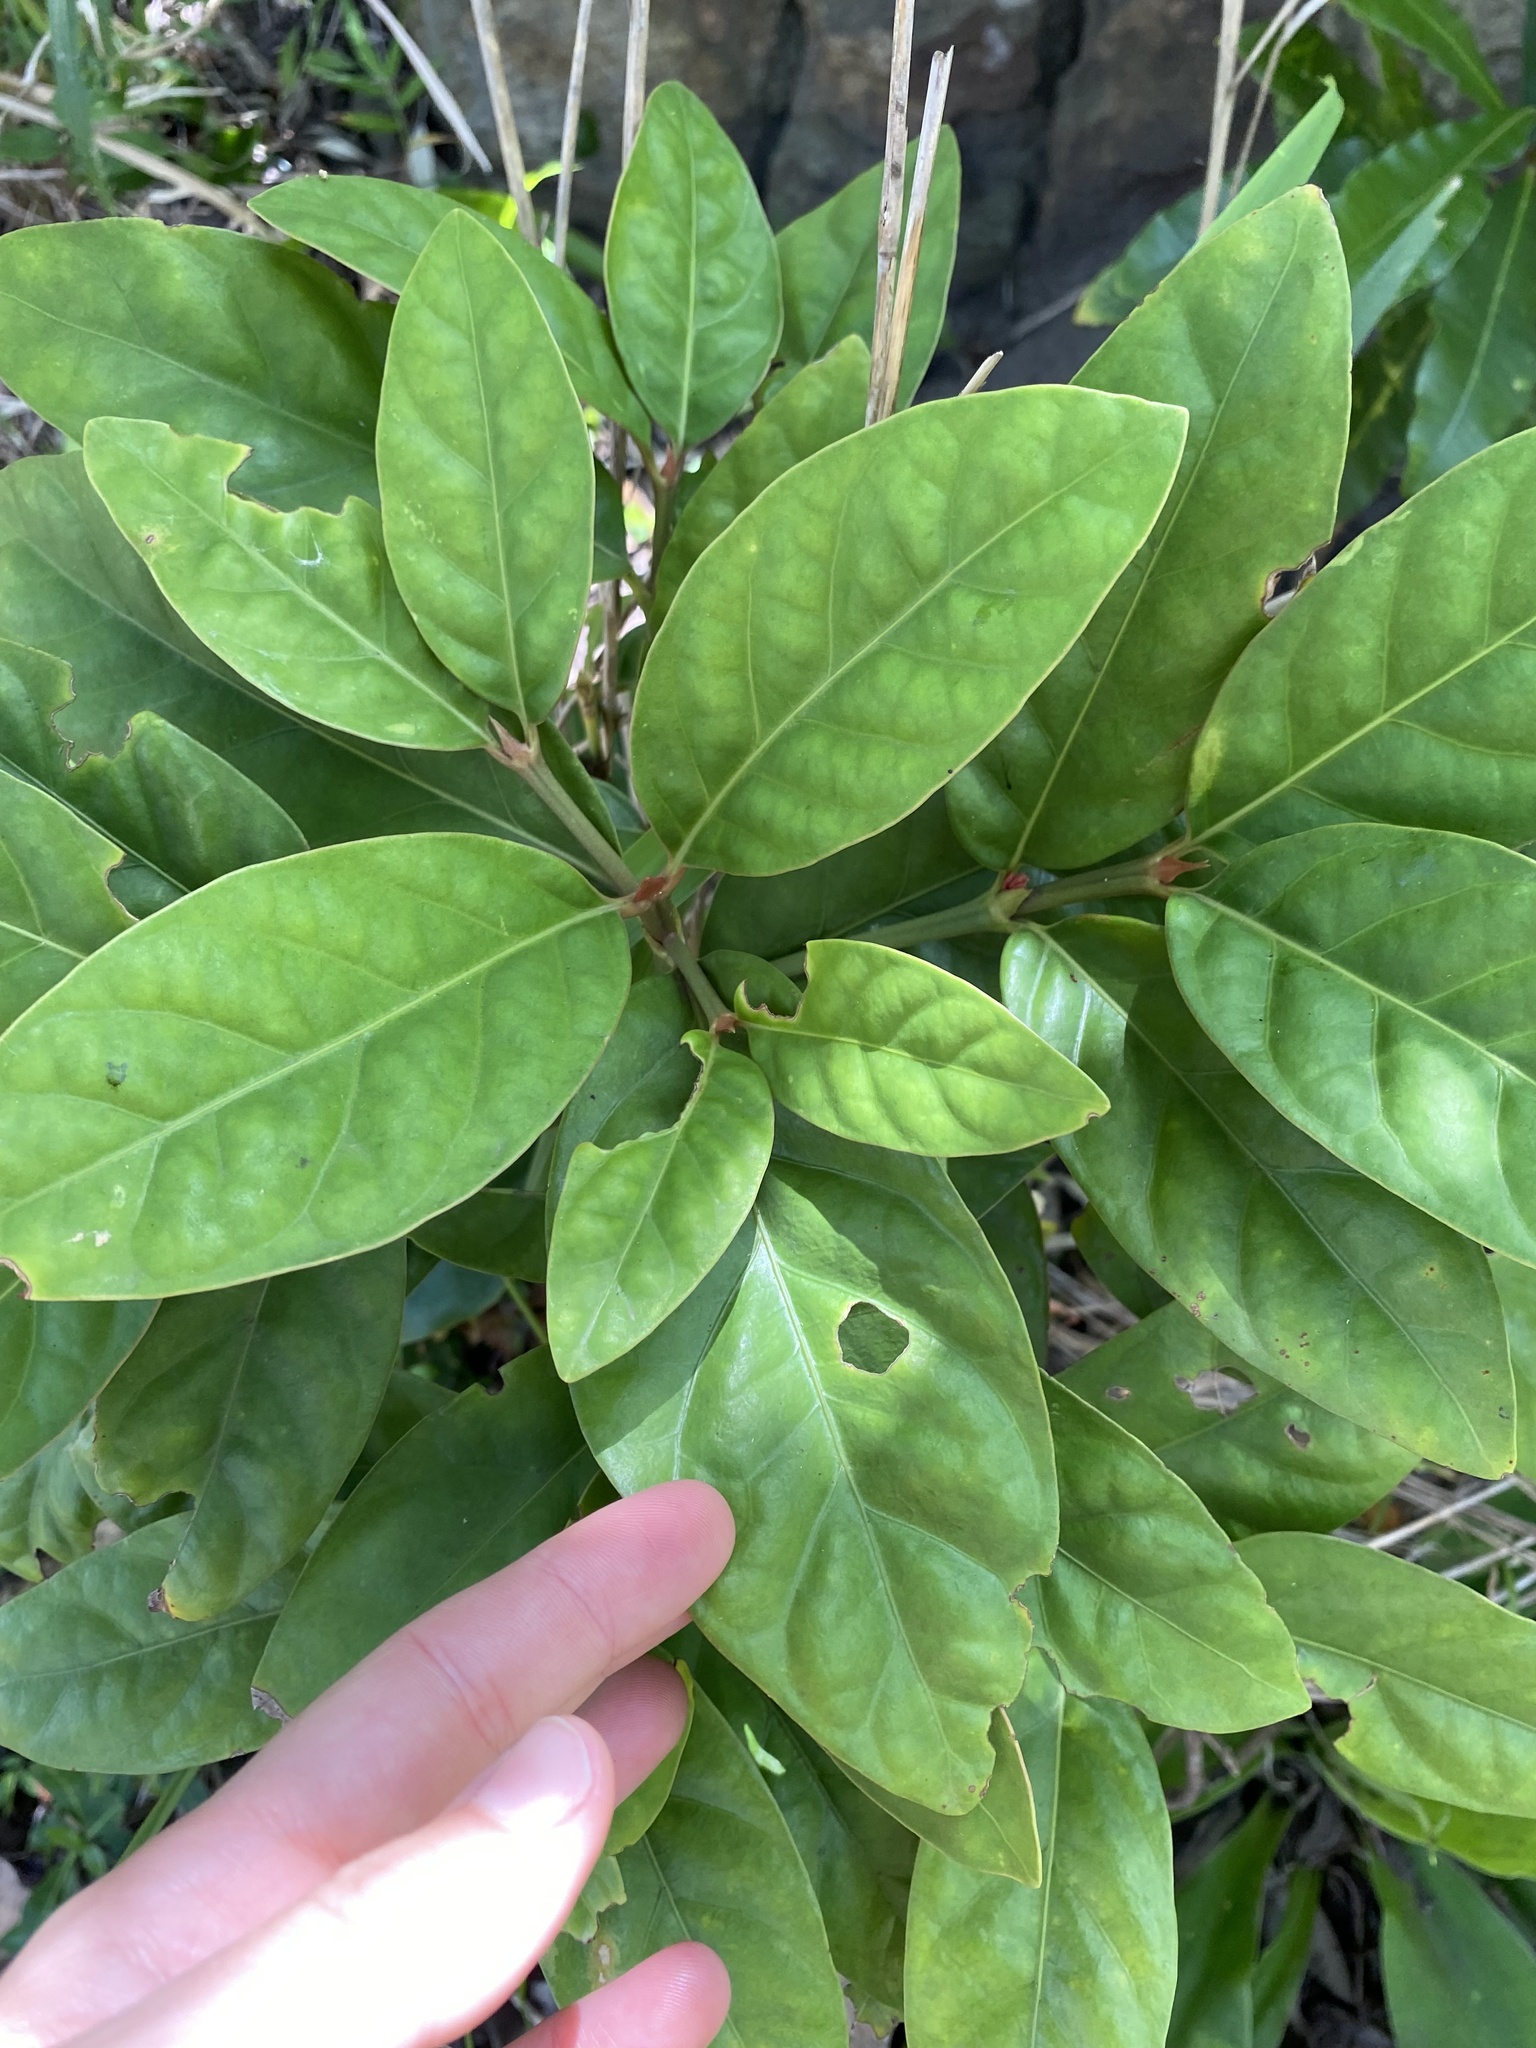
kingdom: Plantae
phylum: Tracheophyta
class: Magnoliopsida
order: Gentianales
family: Rubiaceae
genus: Mitriostigma
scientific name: Mitriostigma axillare
